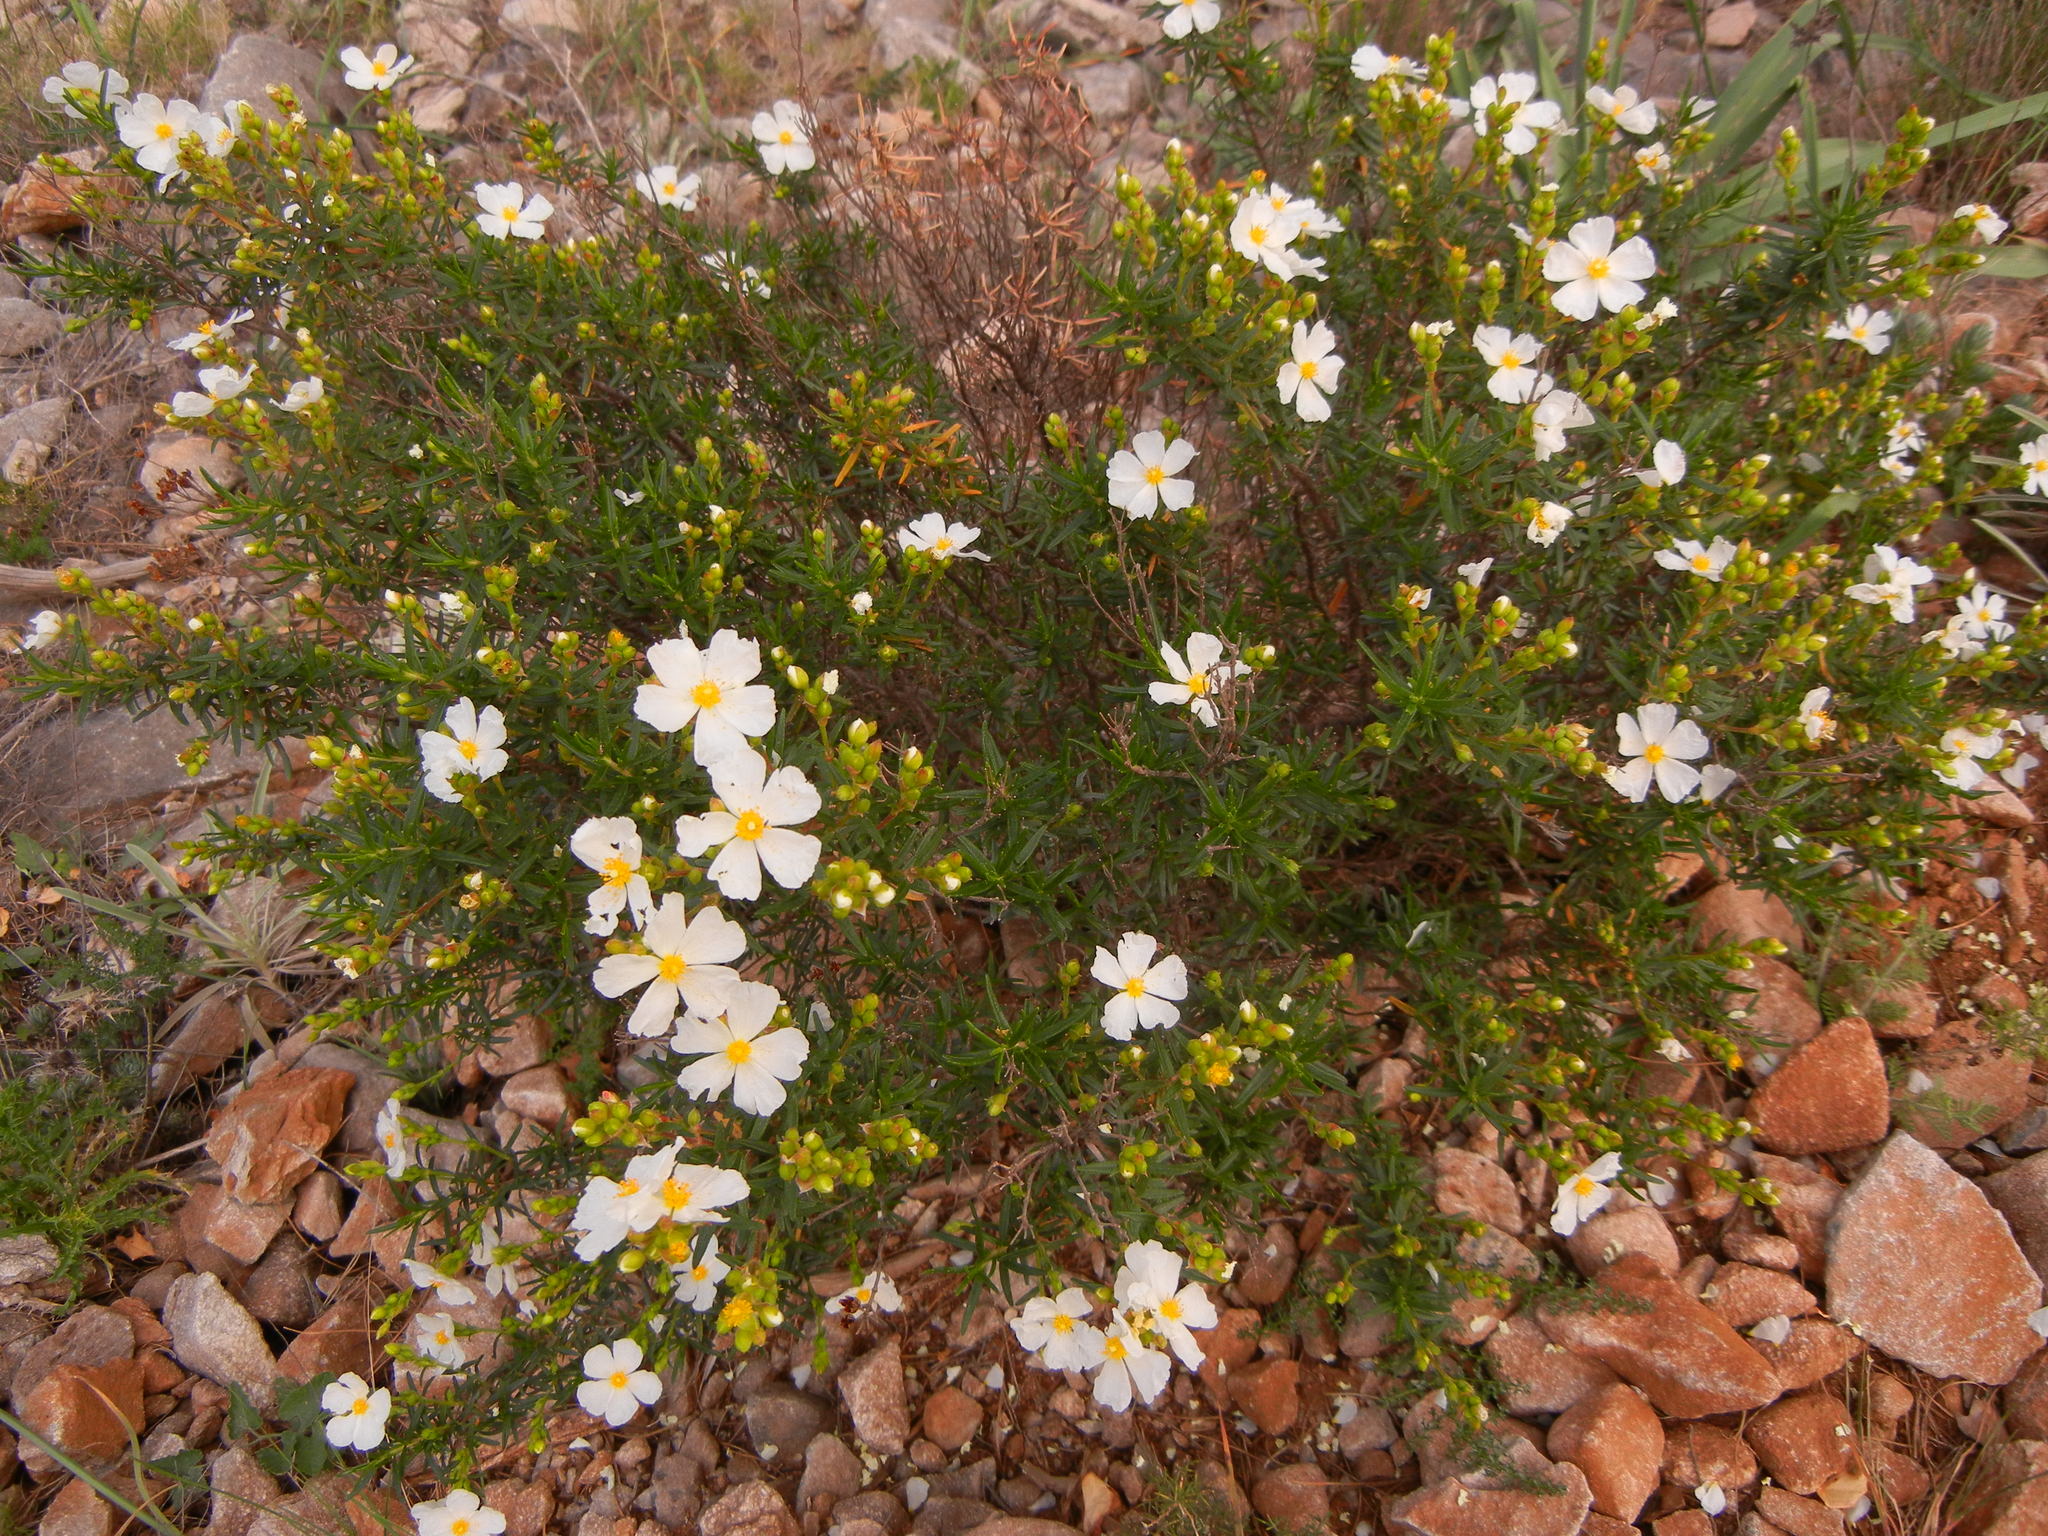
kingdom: Plantae
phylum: Tracheophyta
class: Magnoliopsida
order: Malvales
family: Cistaceae
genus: Cistus
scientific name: Cistus clusii
